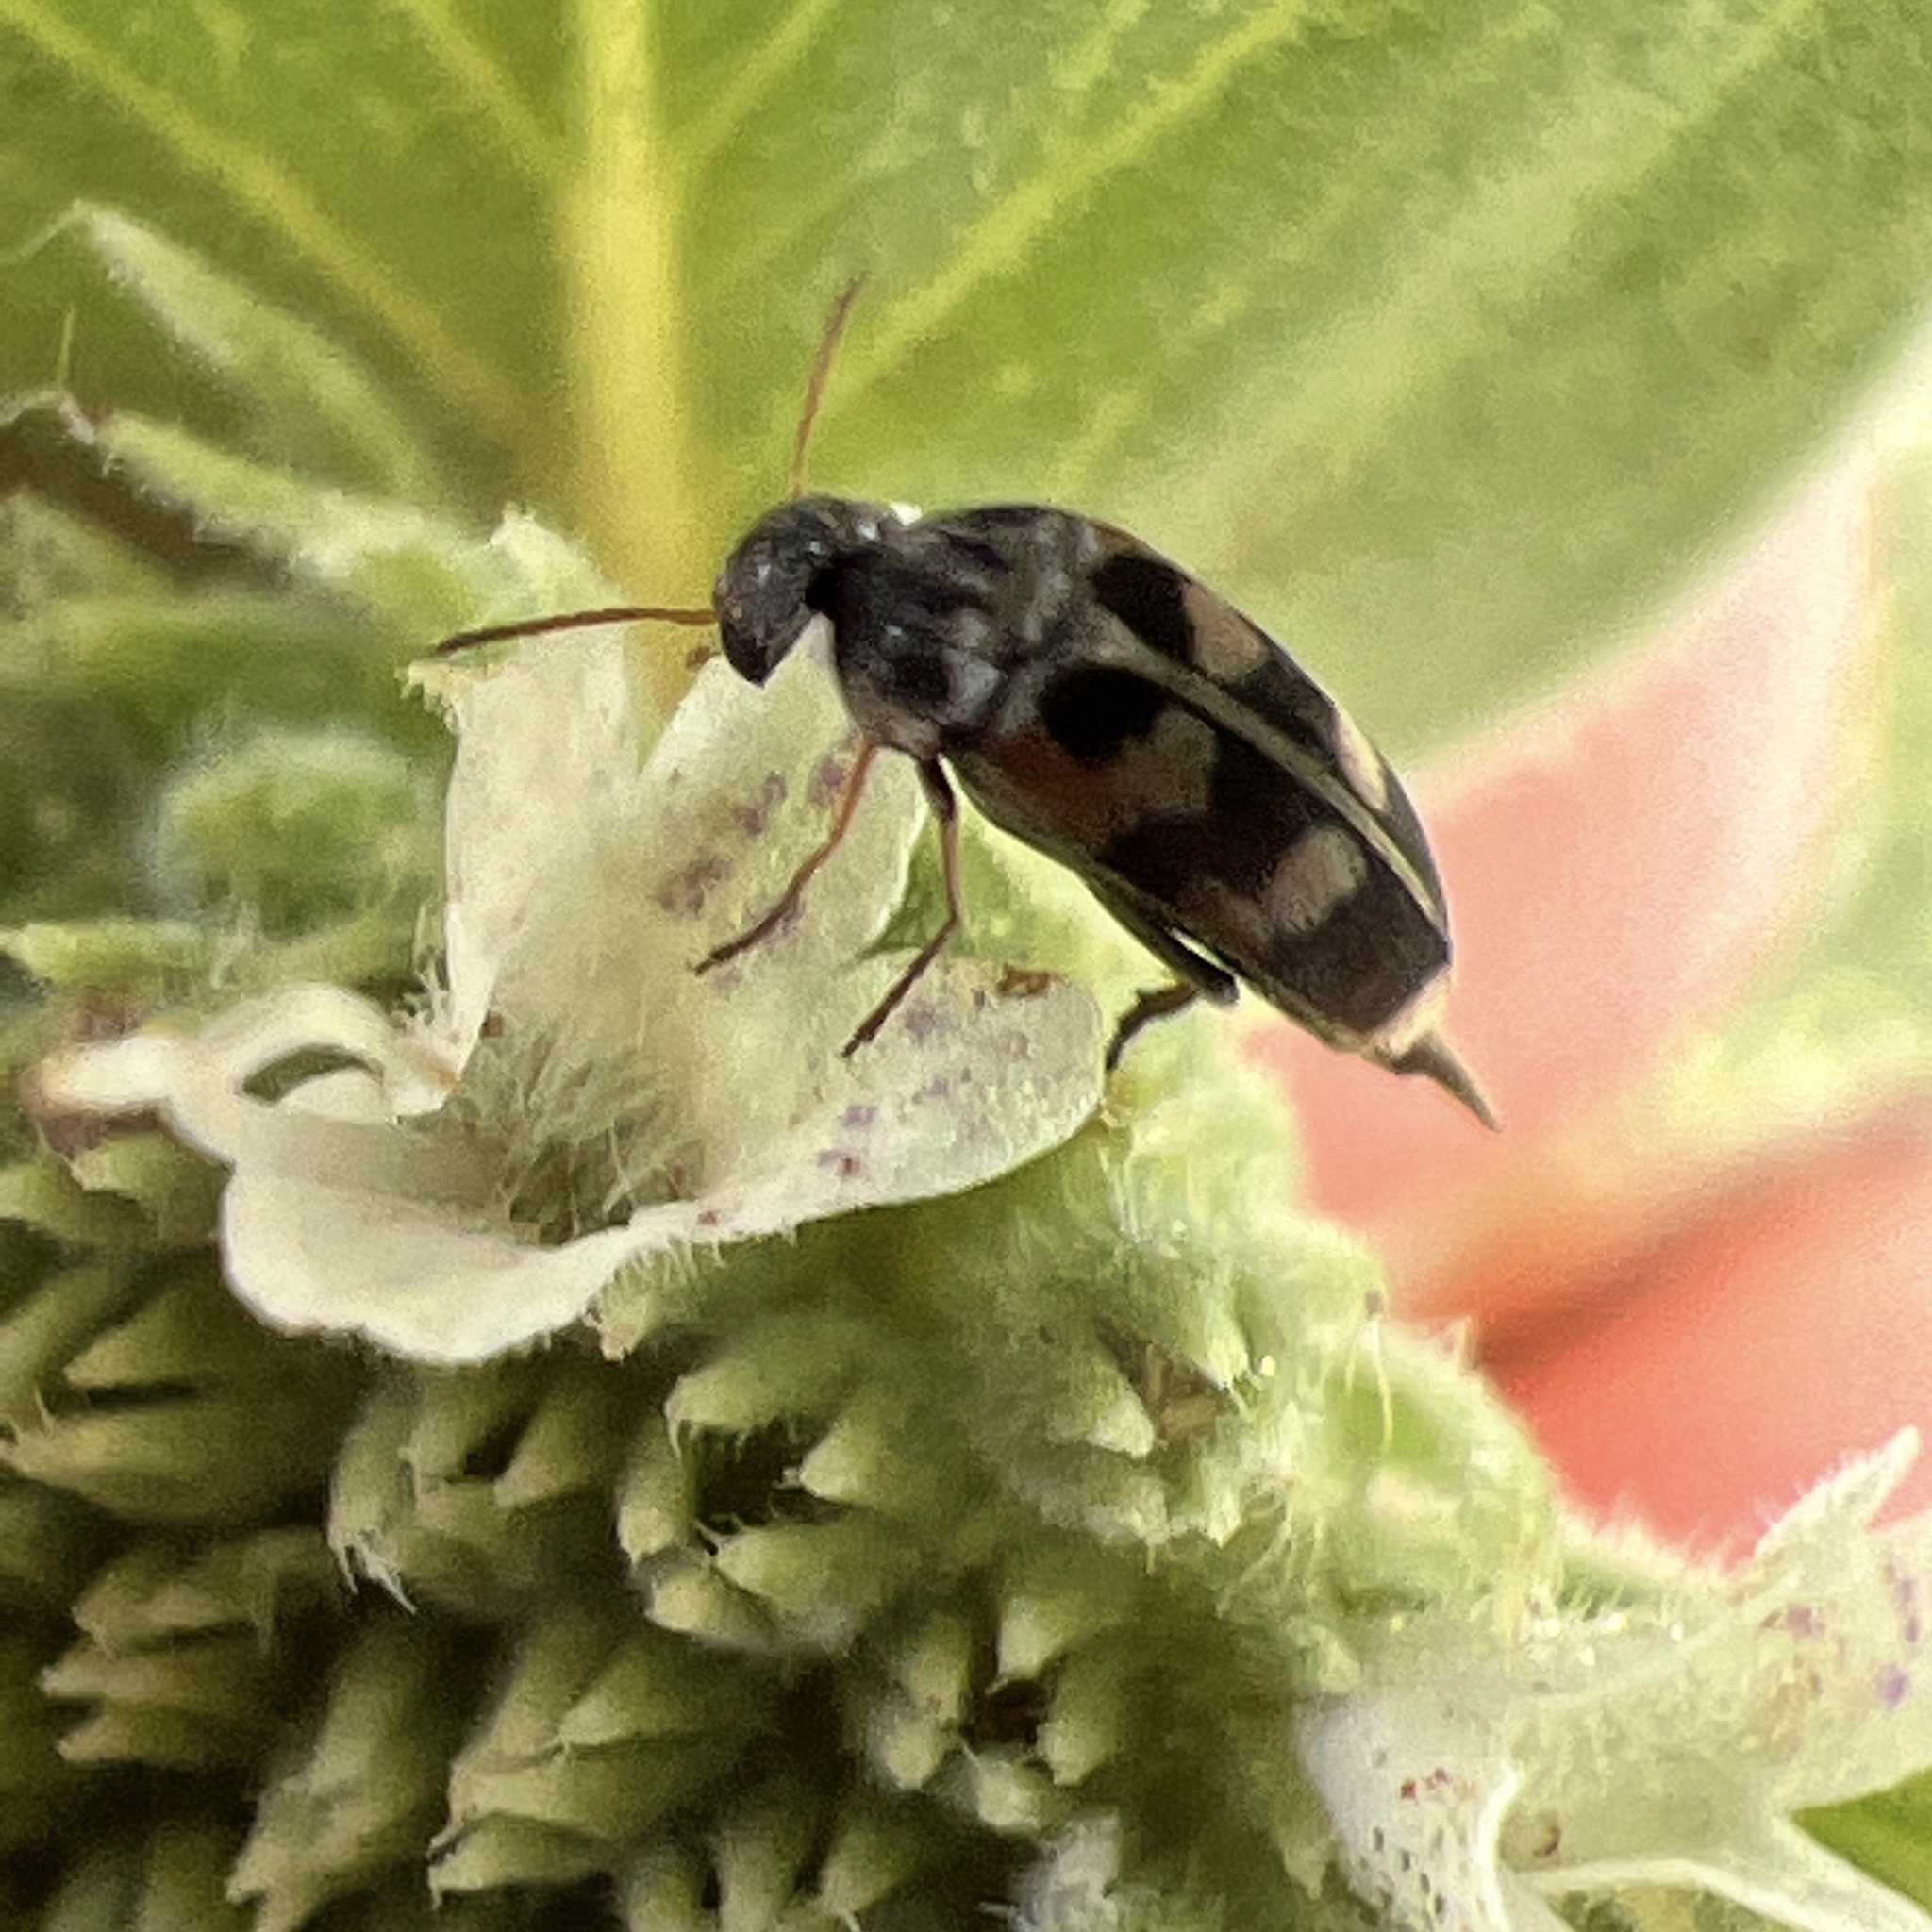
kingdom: Animalia
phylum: Arthropoda
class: Insecta
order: Coleoptera
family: Mordellidae
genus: Falsomordellistena
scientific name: Falsomordellistena pubescens
